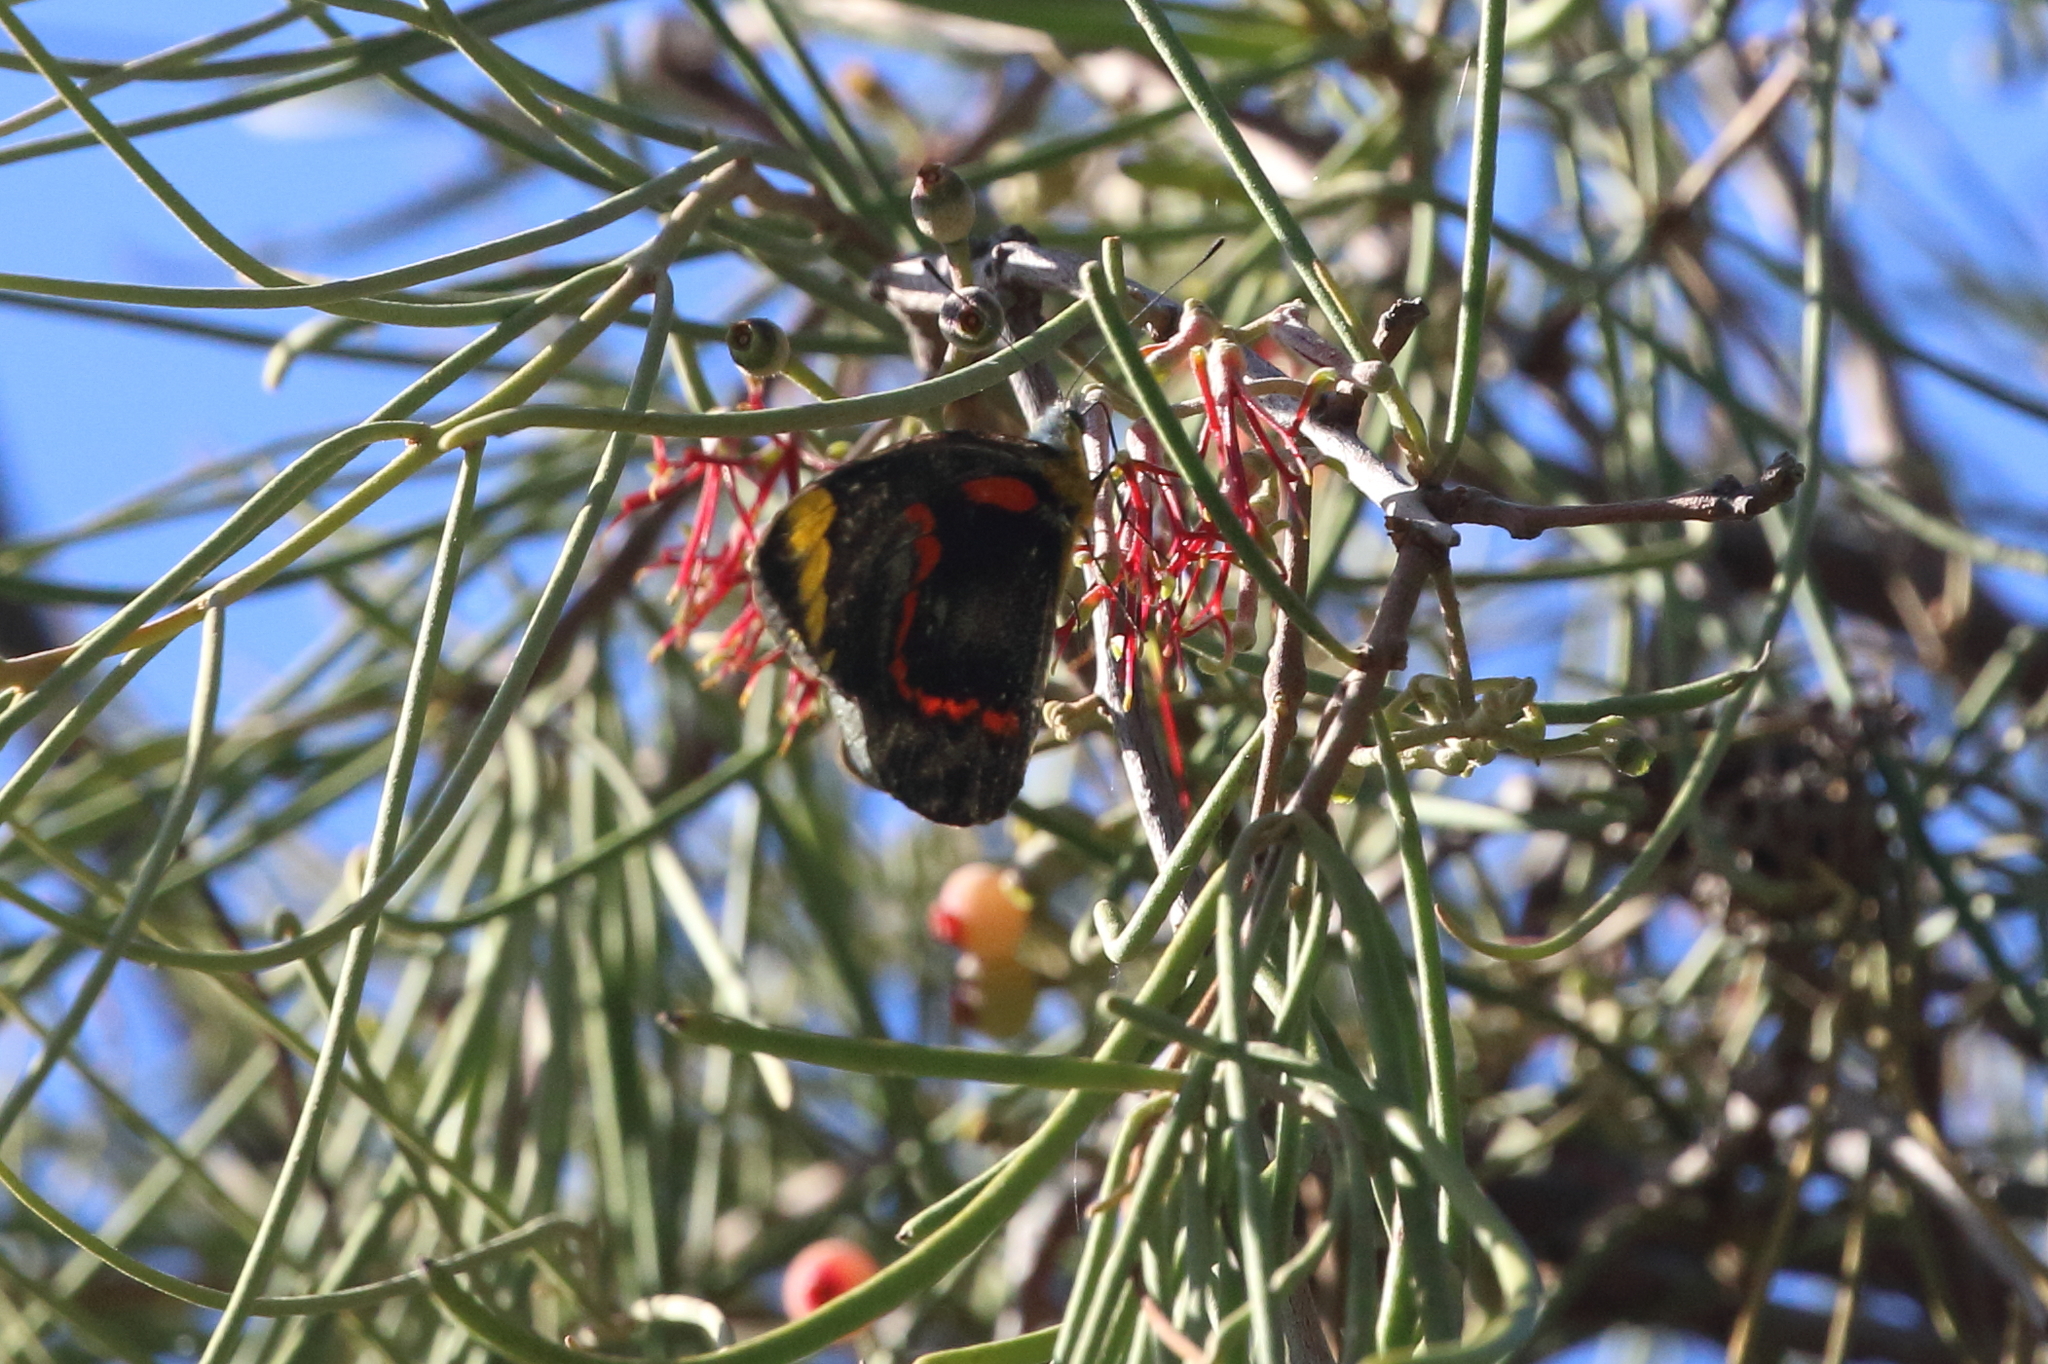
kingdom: Plantae
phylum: Tracheophyta
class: Magnoliopsida
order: Santalales
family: Loranthaceae
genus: Amyema
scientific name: Amyema cambagei
